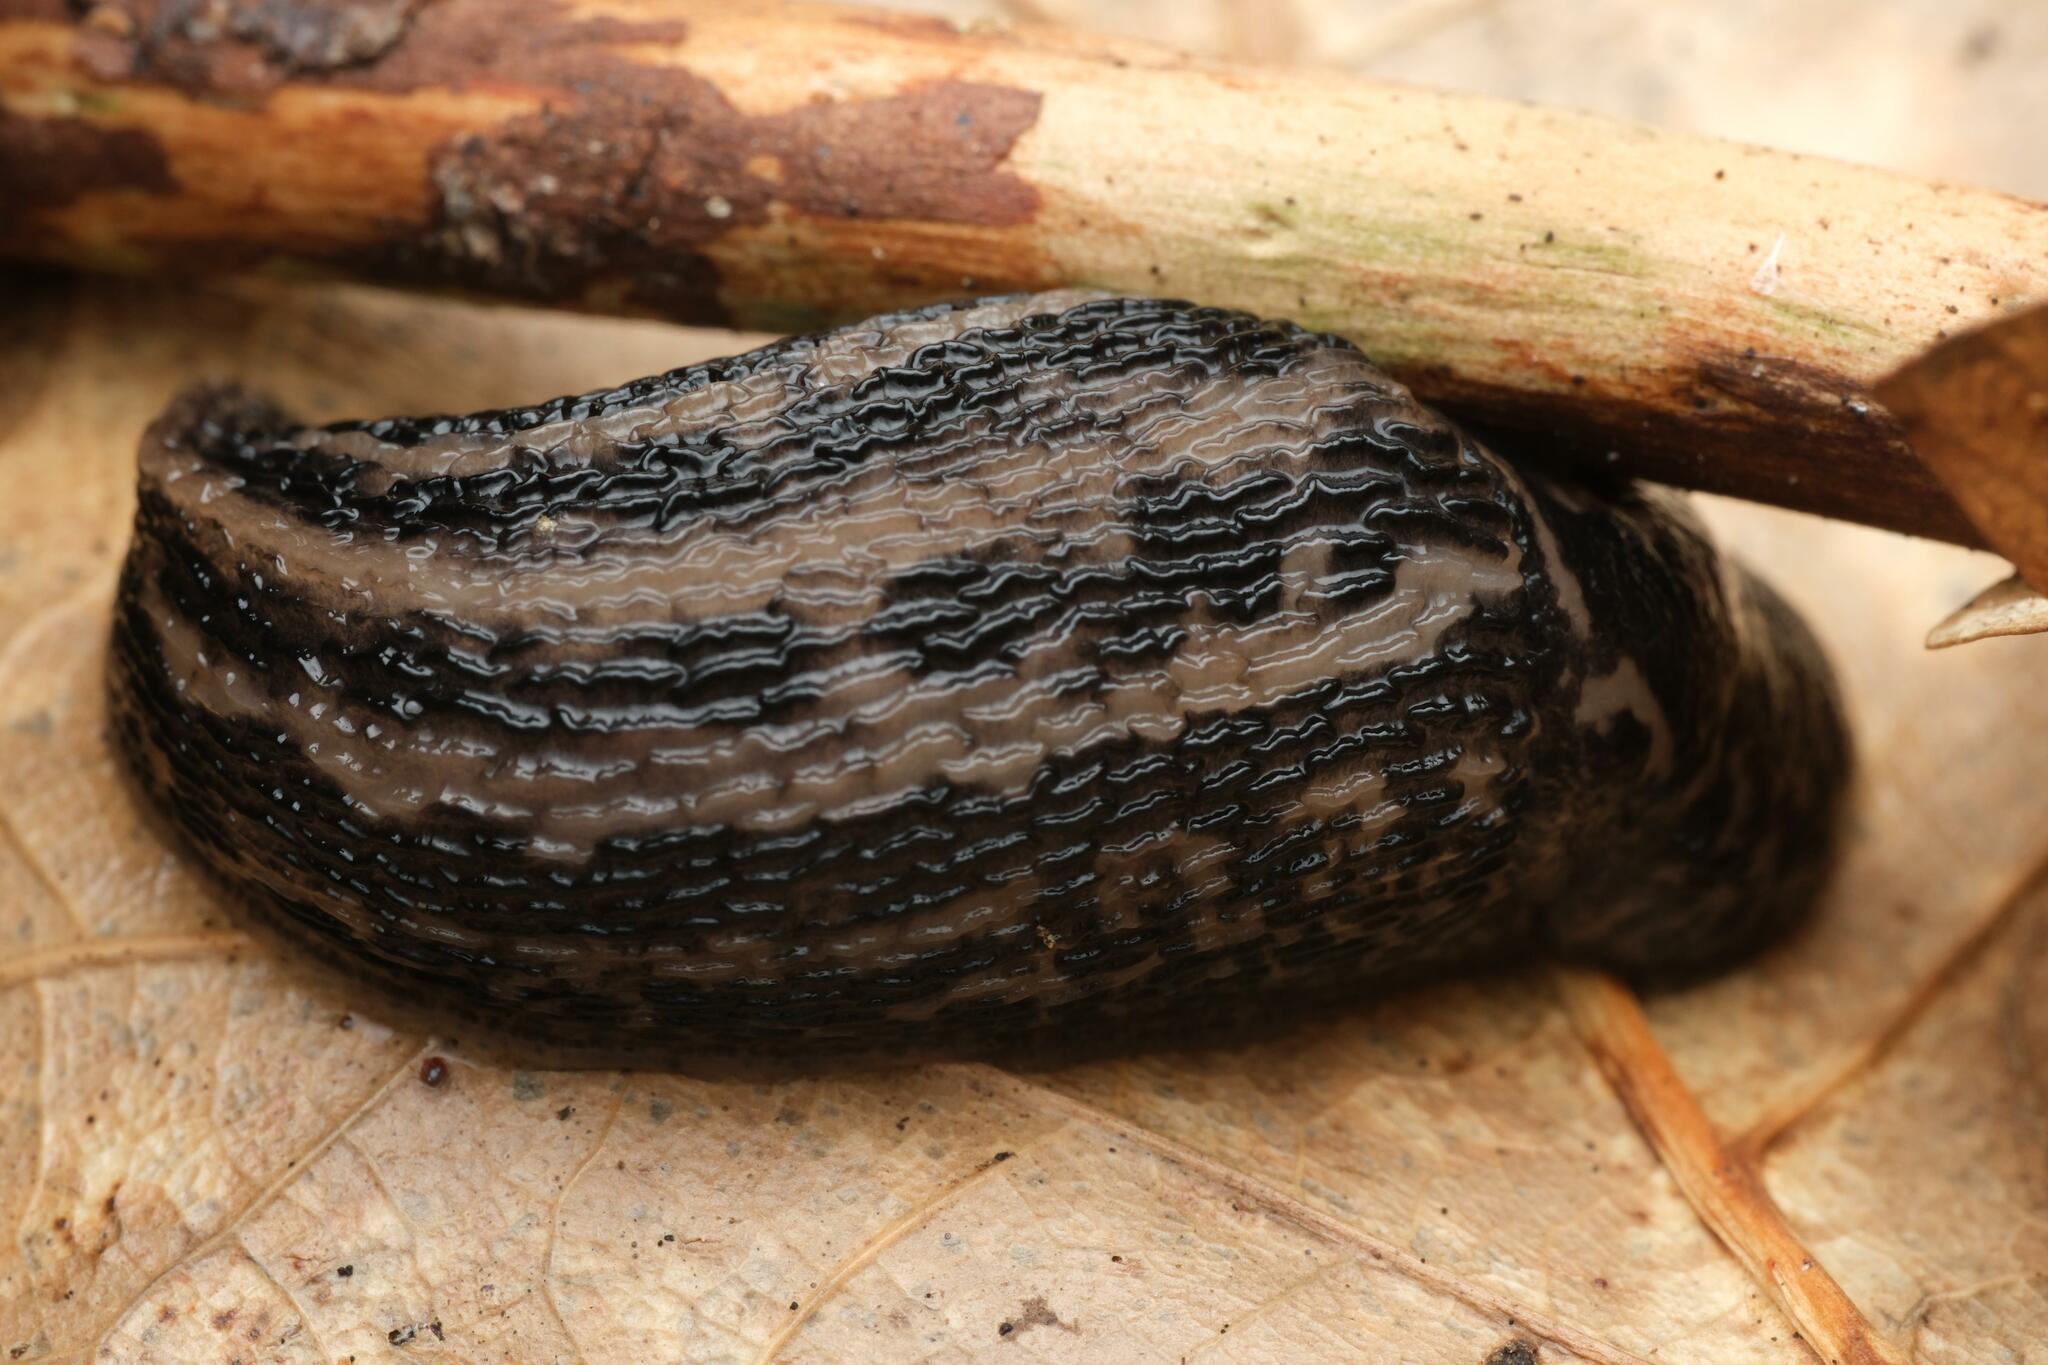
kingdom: Animalia
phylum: Mollusca
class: Gastropoda
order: Stylommatophora
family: Limacidae
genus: Limax
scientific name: Limax maximus
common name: Great grey slug
